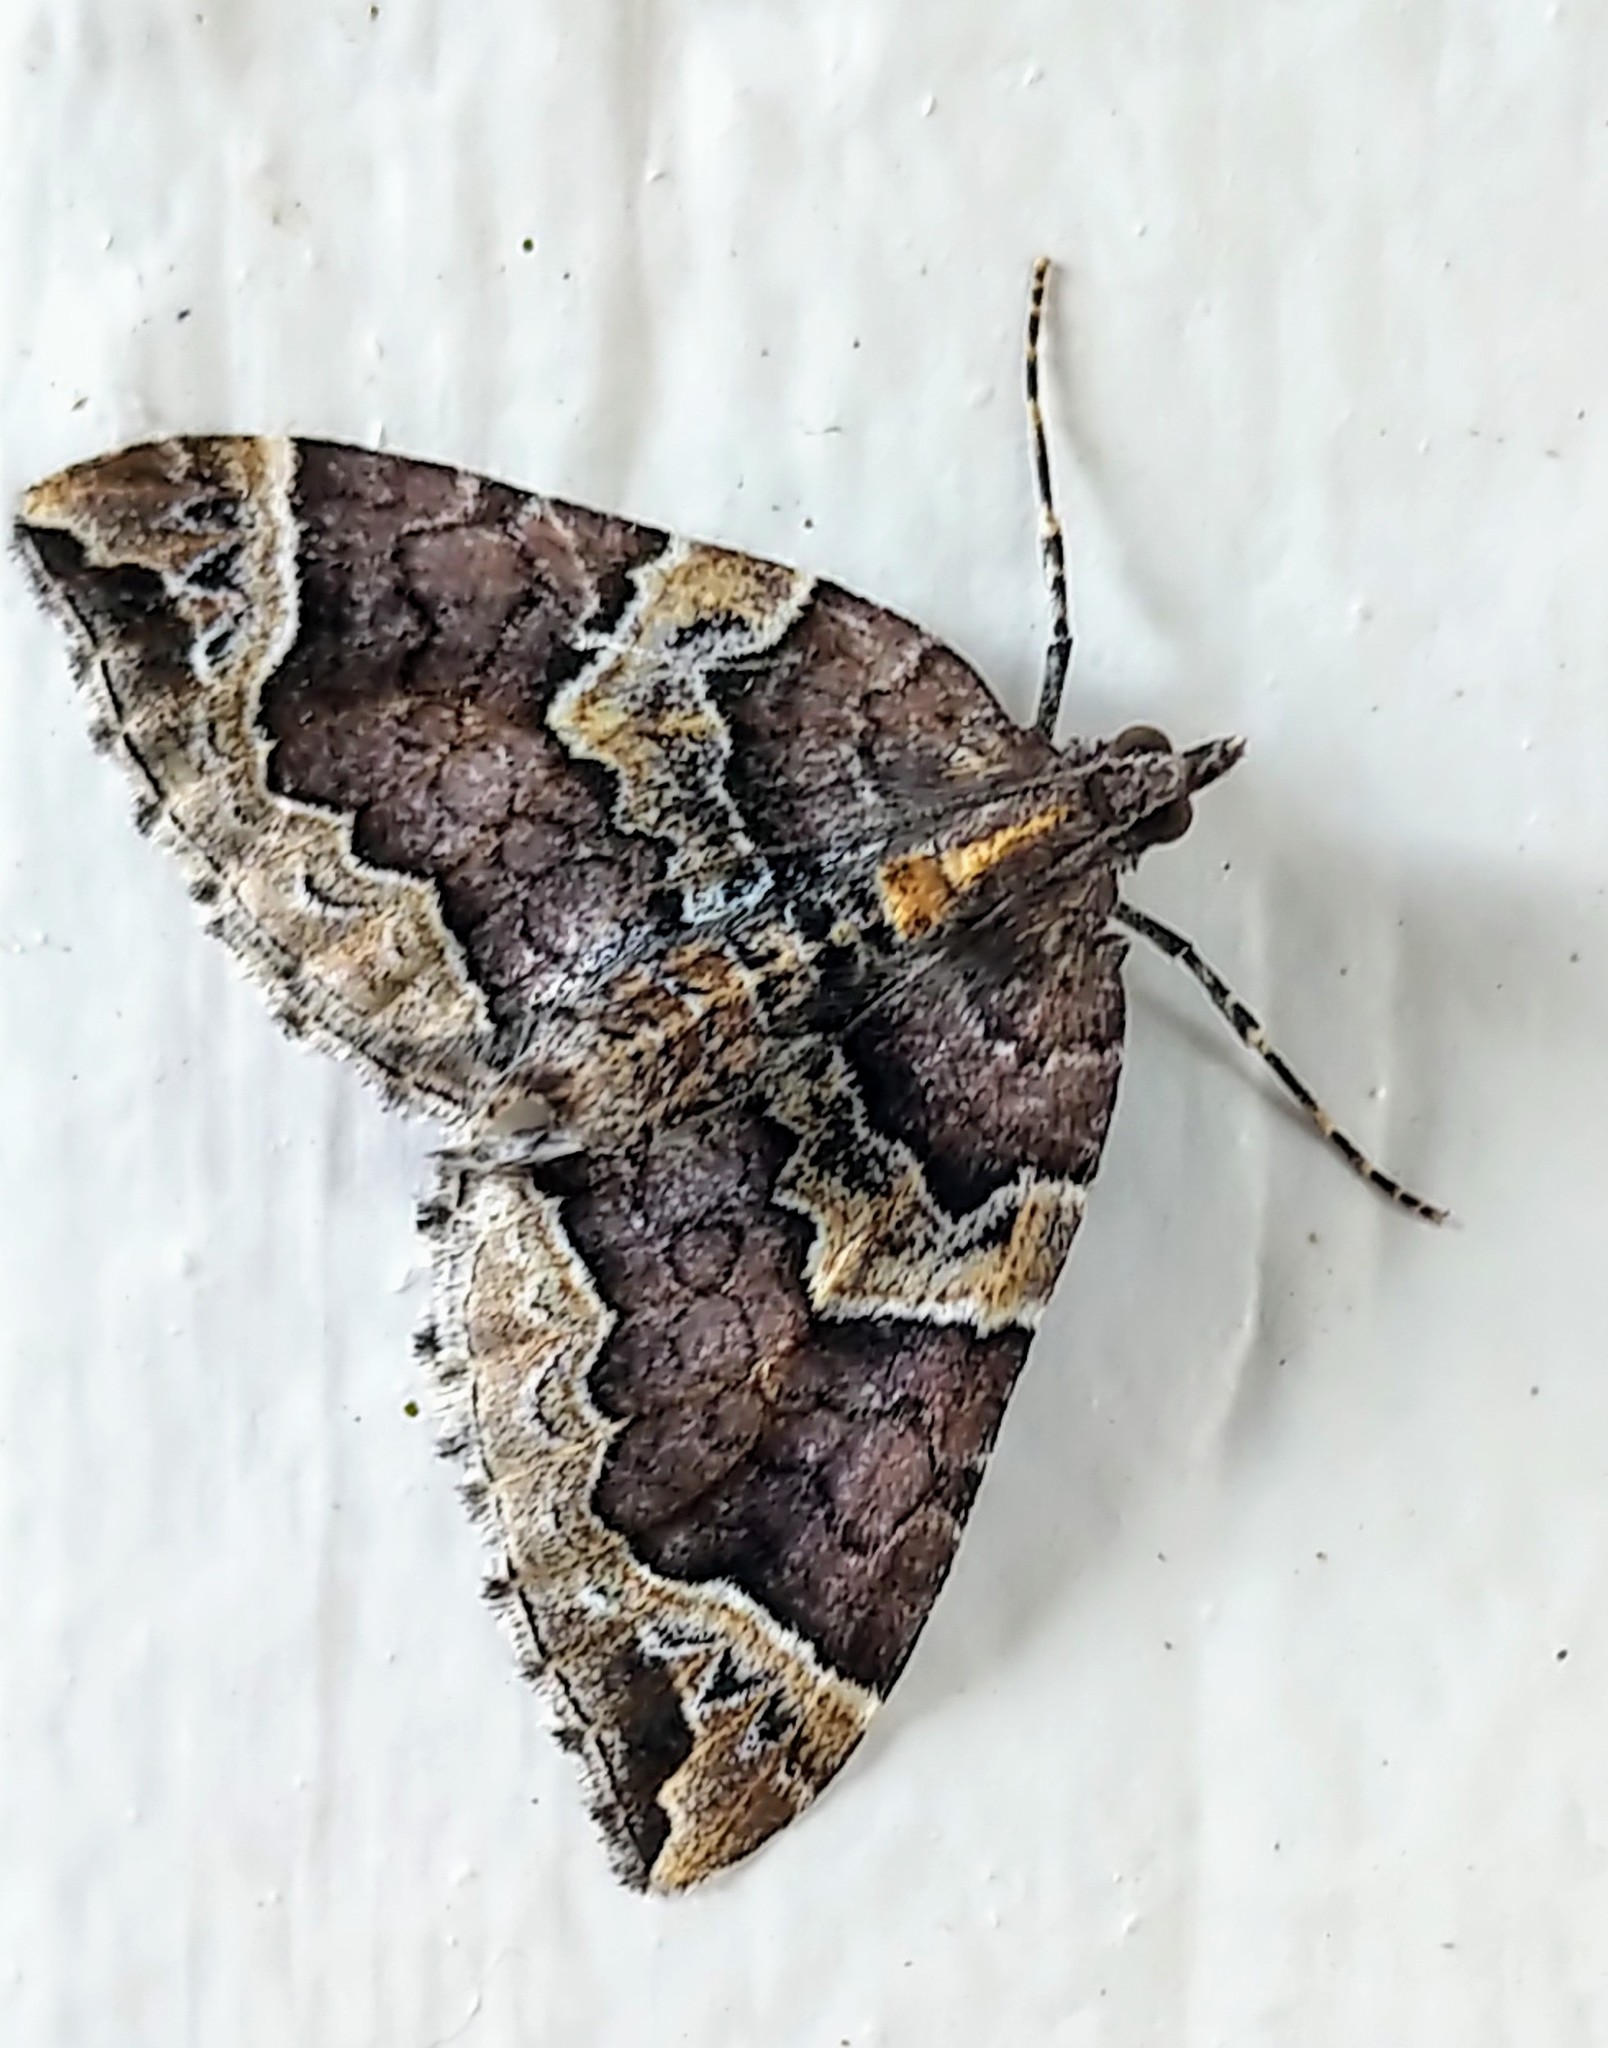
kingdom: Animalia
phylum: Arthropoda
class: Insecta
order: Lepidoptera
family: Geometridae
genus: Eulithis
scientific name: Eulithis xylina
